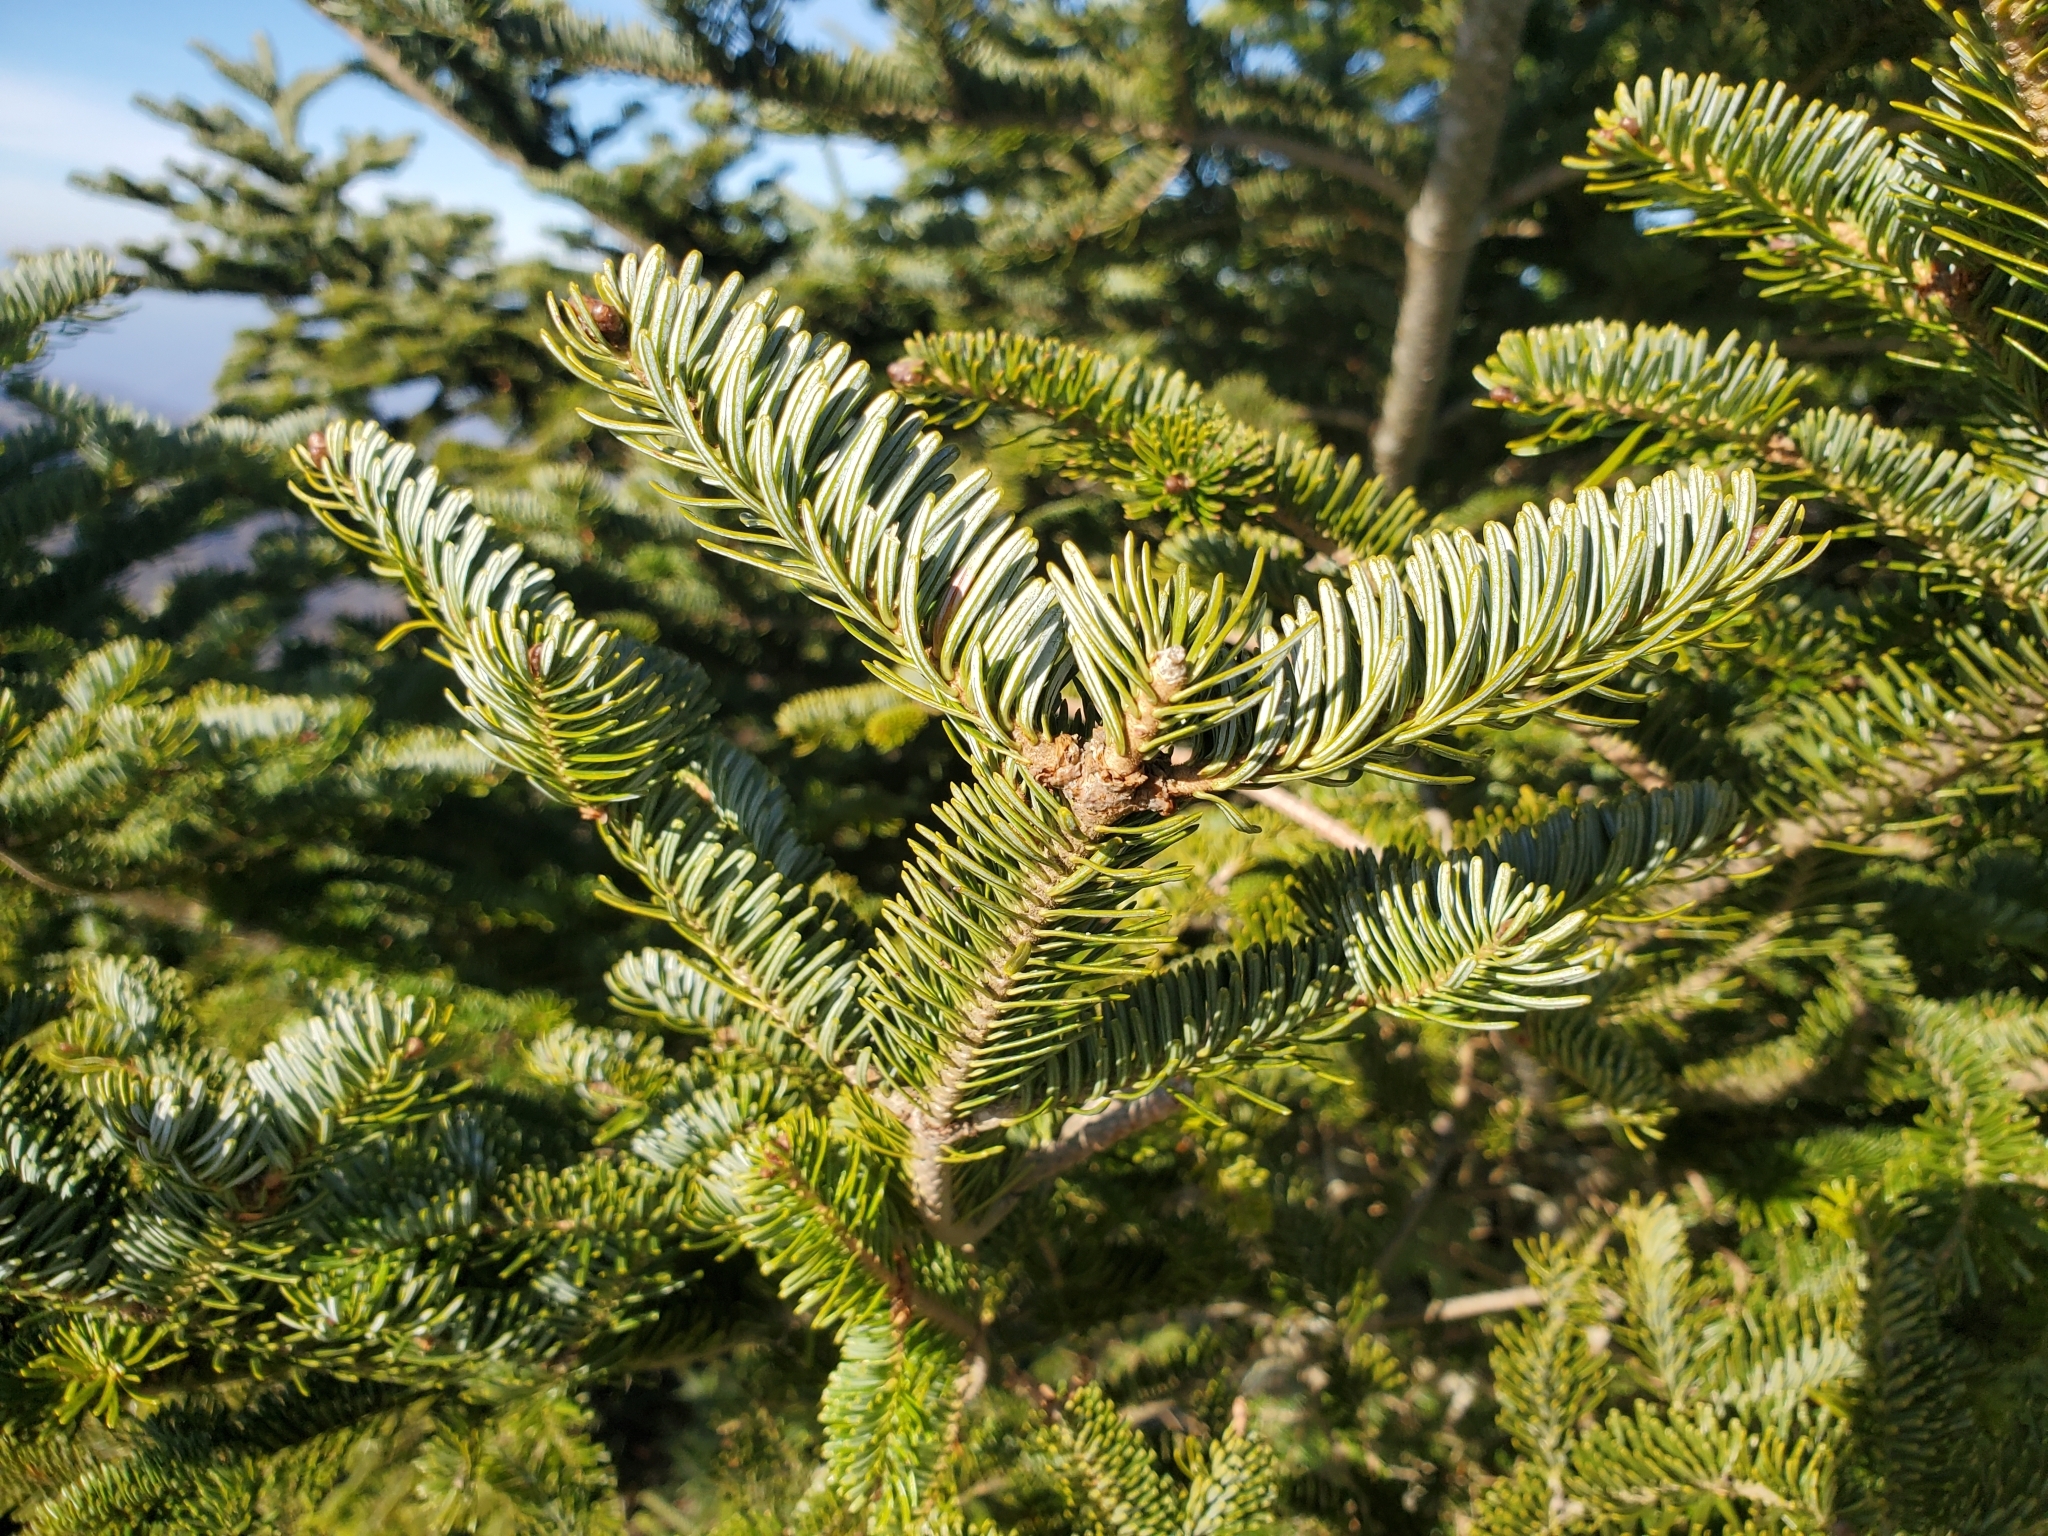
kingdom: Plantae
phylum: Tracheophyta
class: Pinopsida
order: Pinales
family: Pinaceae
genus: Abies
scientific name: Abies fraseri
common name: Fraser fir
